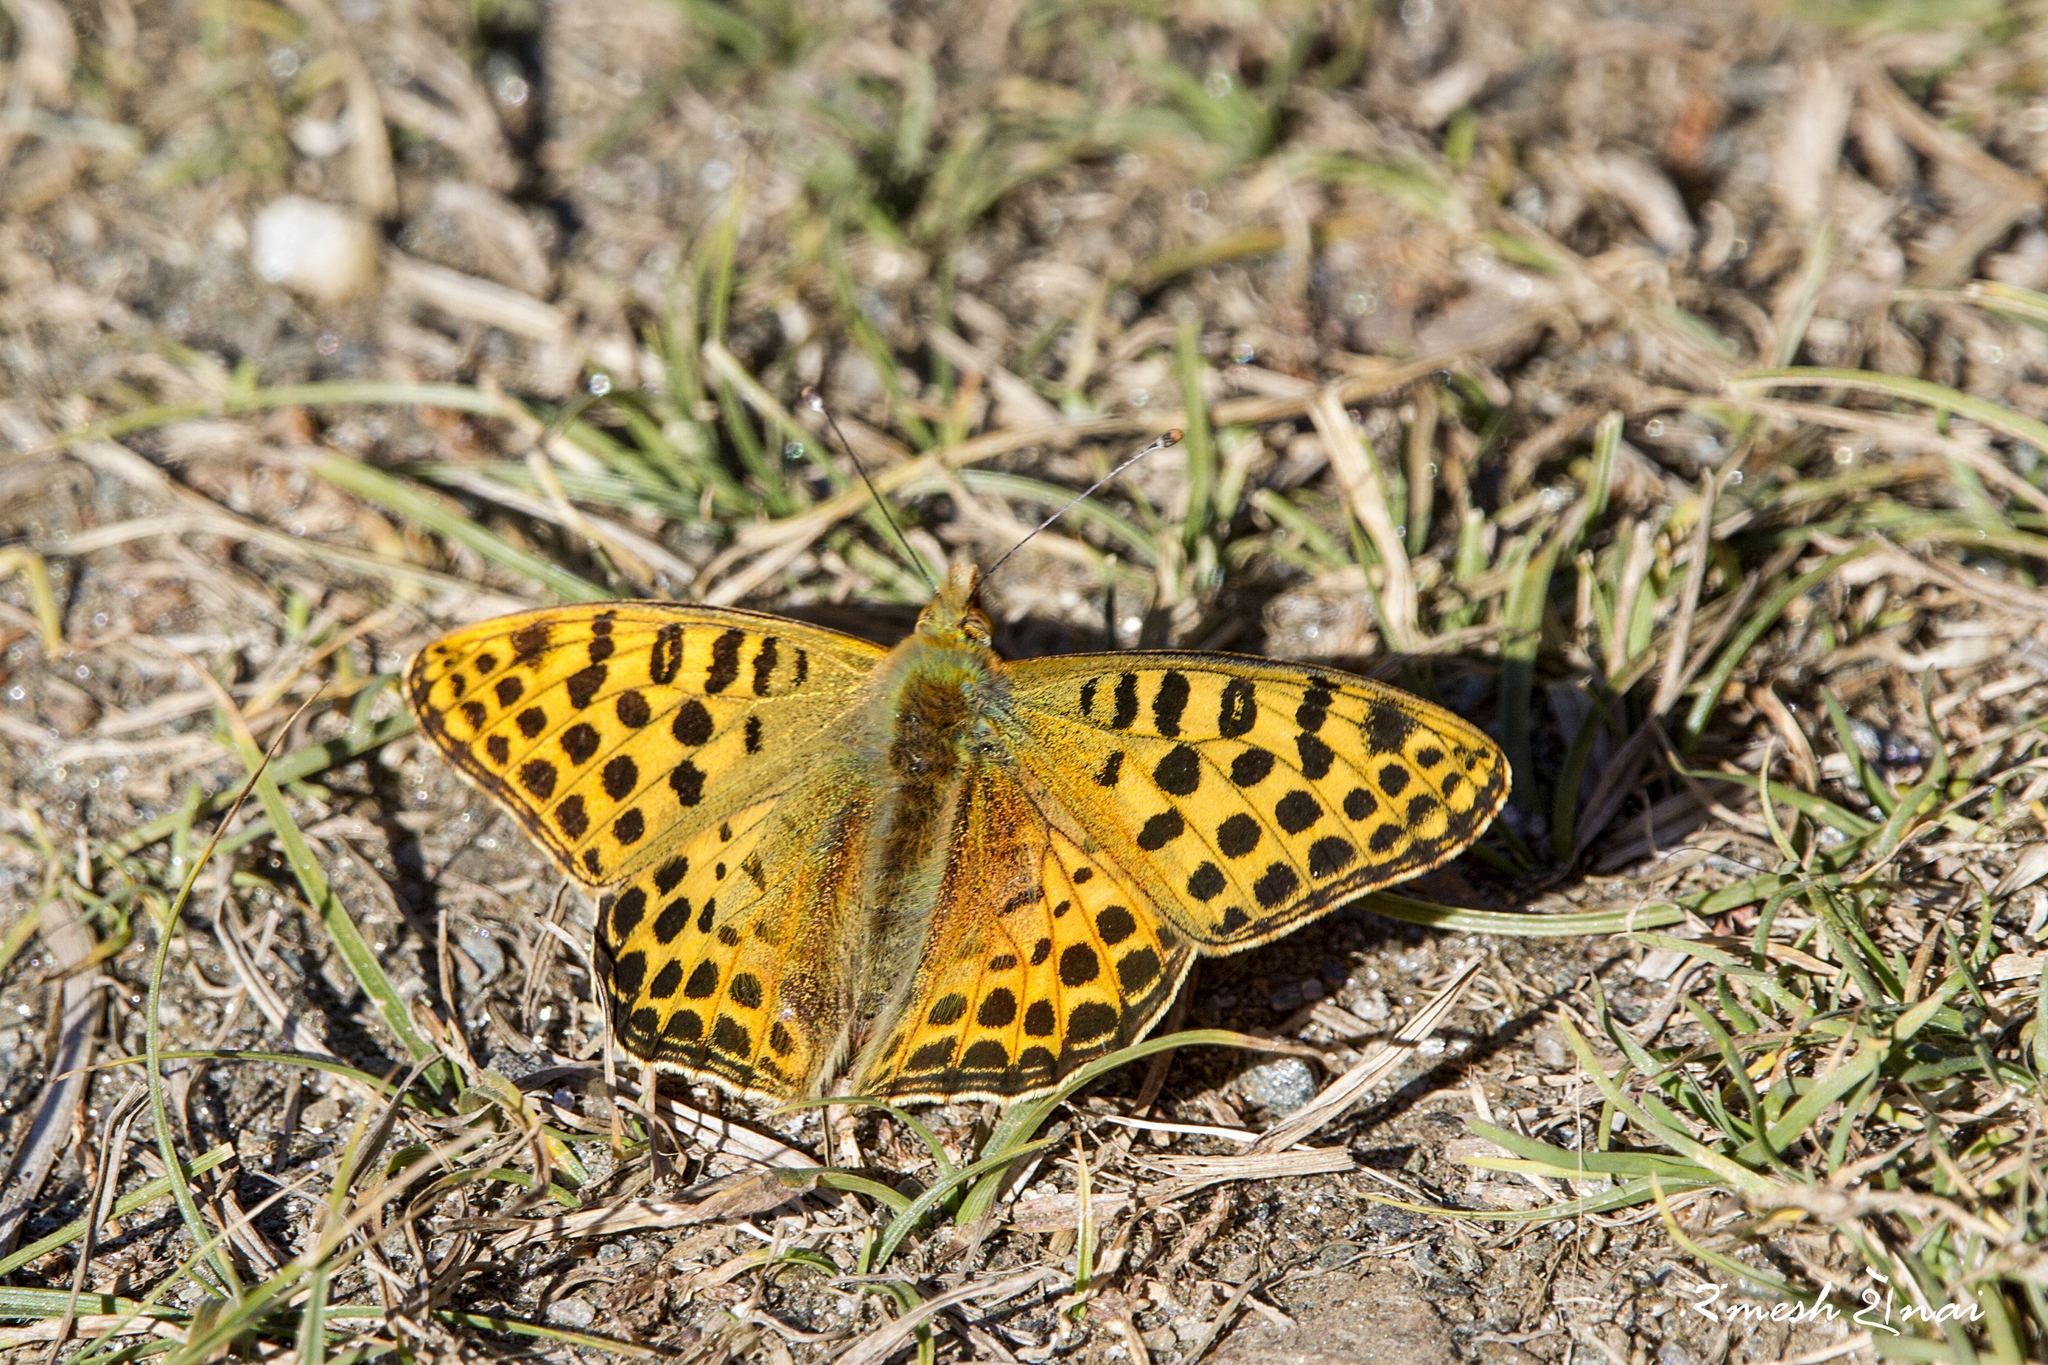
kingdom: Animalia
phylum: Arthropoda
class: Insecta
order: Lepidoptera
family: Nymphalidae
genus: Issoria
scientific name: Issoria
